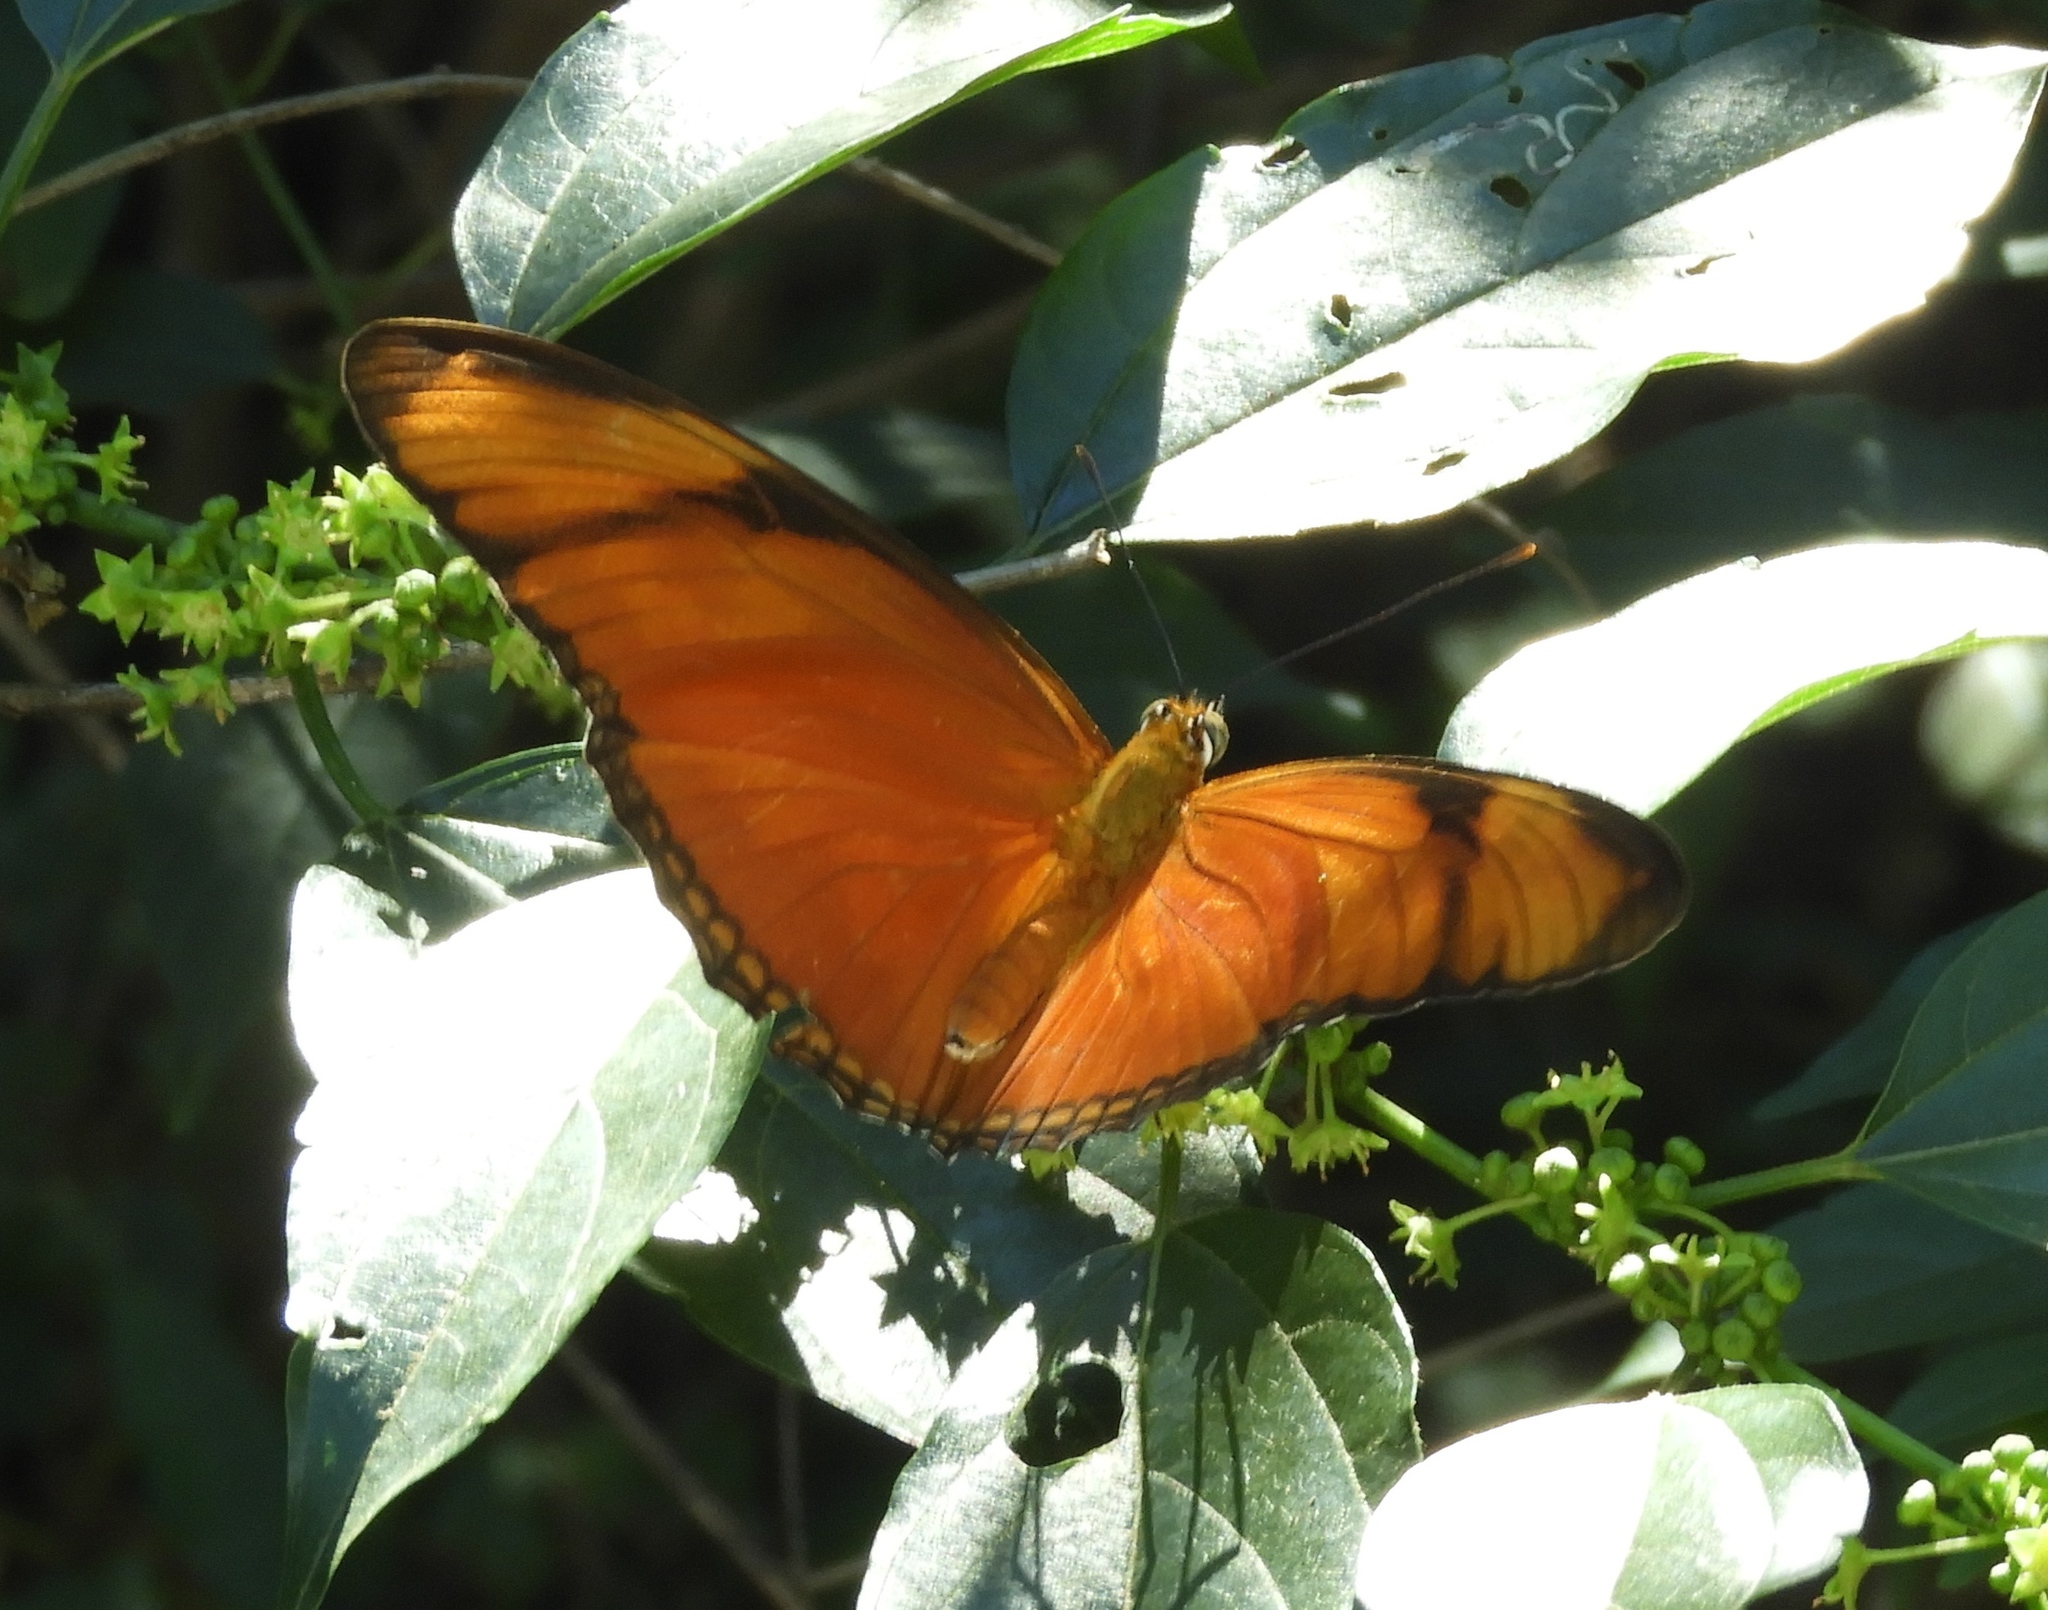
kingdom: Animalia
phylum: Arthropoda
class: Insecta
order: Lepidoptera
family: Nymphalidae
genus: Dryas
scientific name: Dryas iulia
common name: Flambeau
